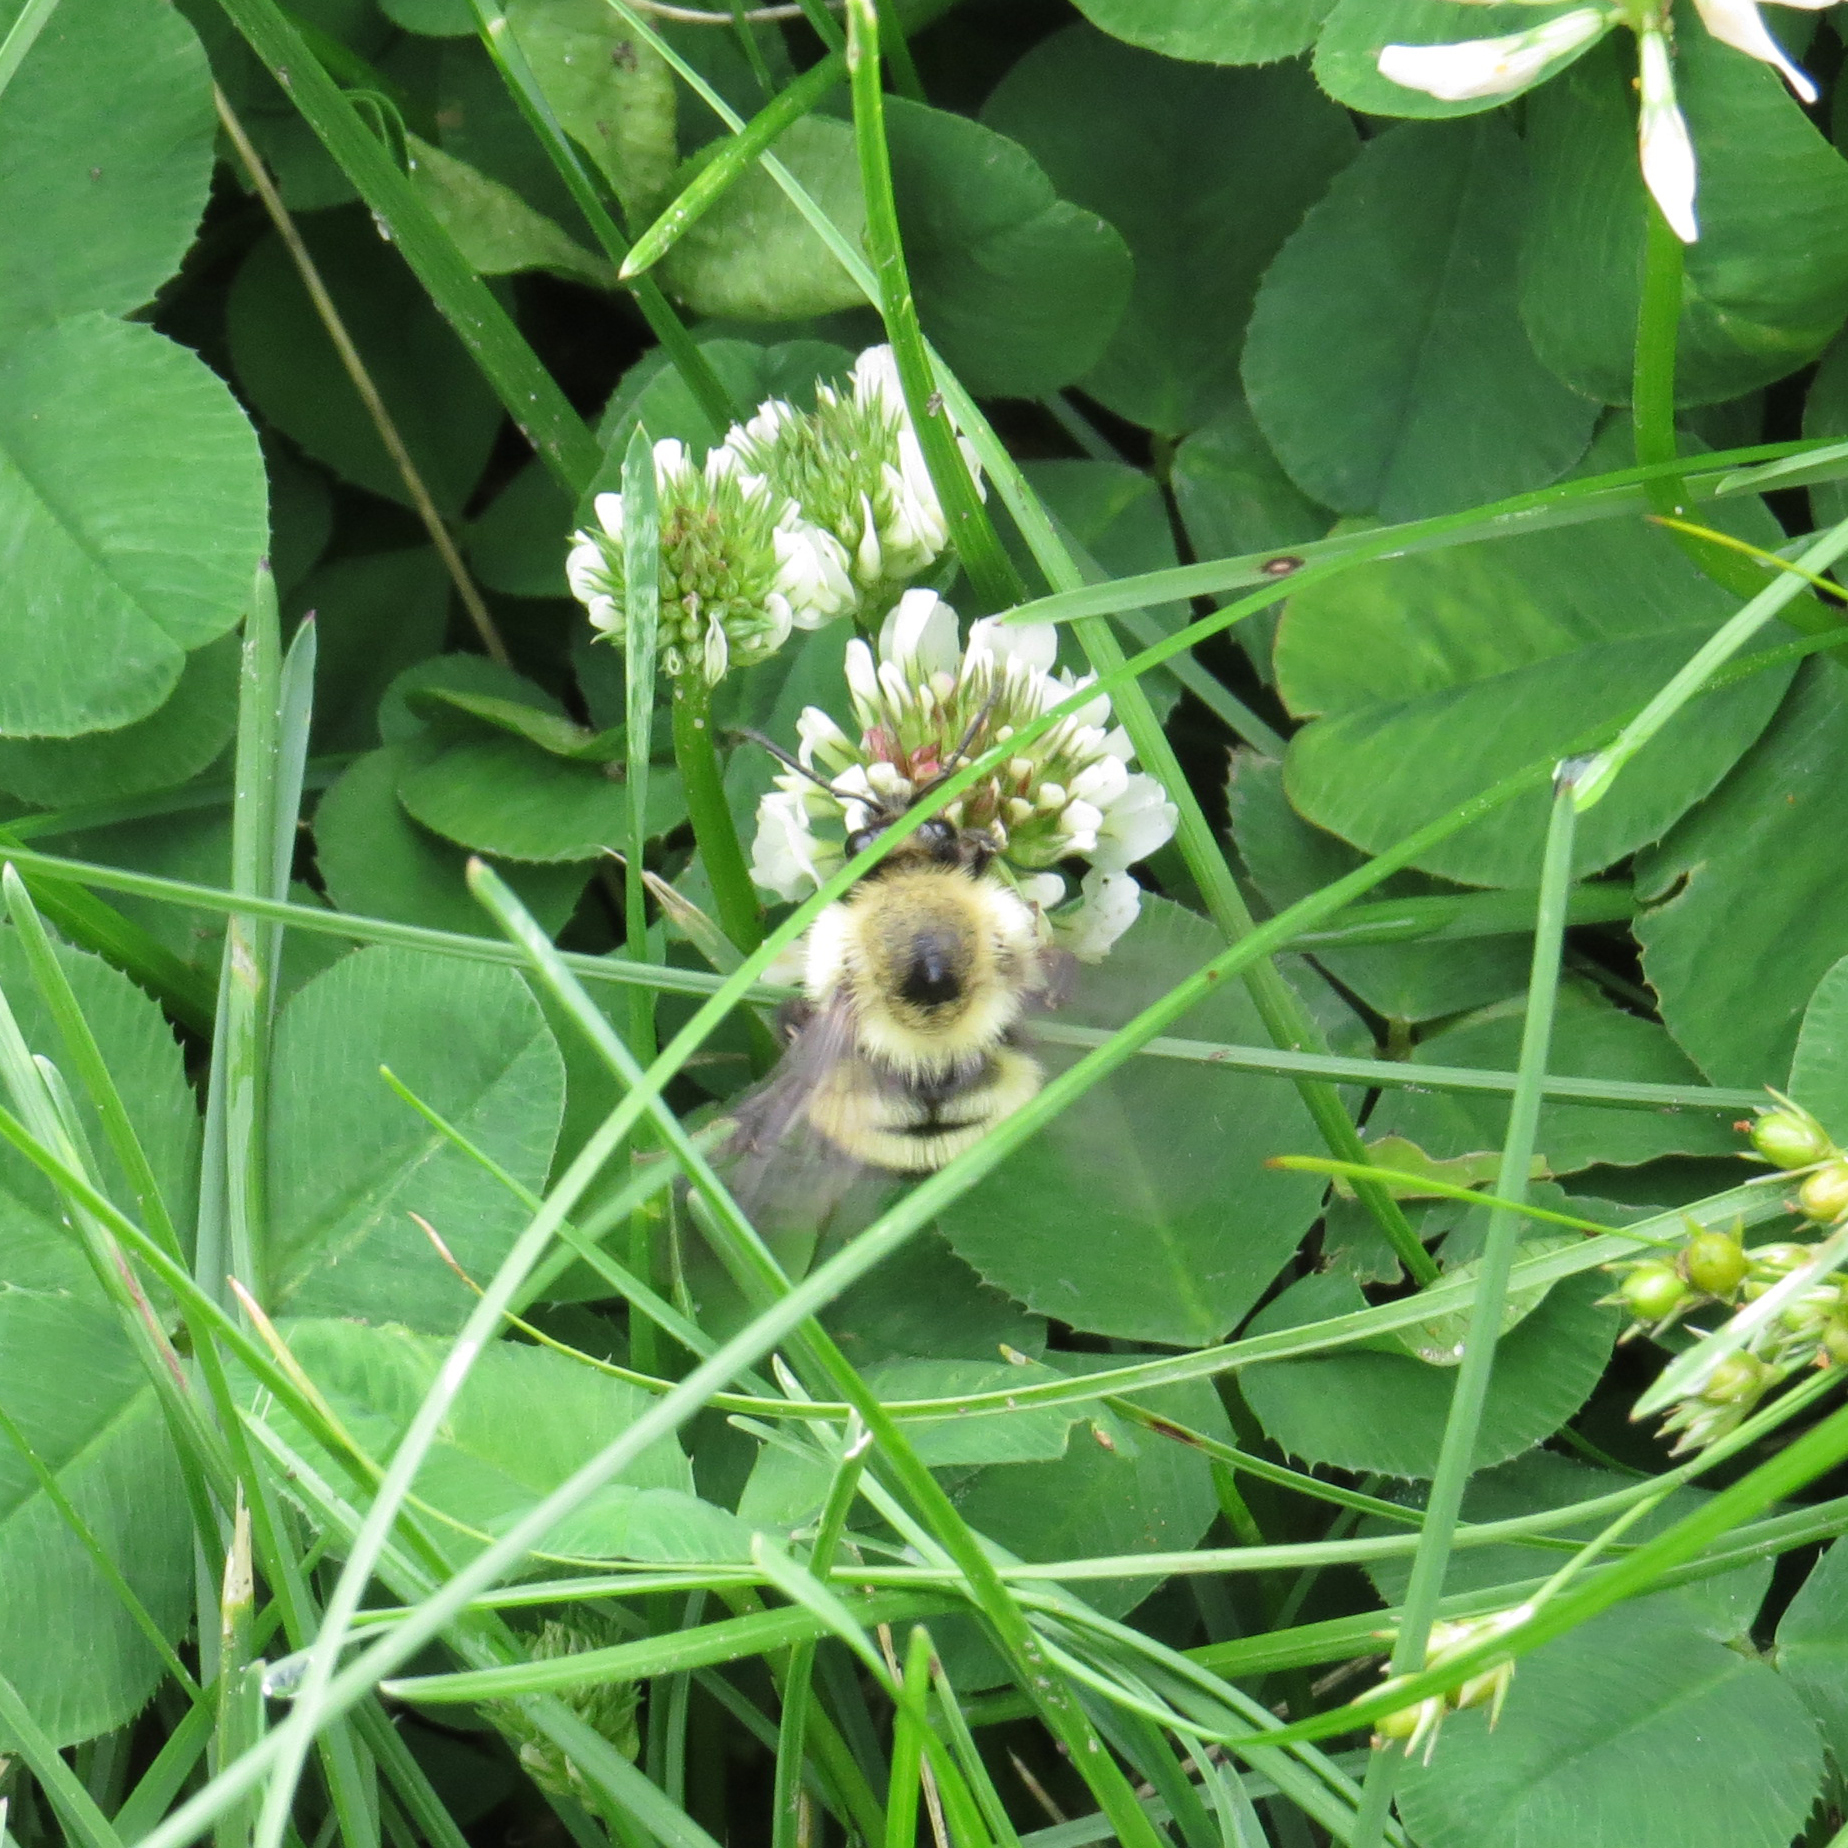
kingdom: Animalia
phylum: Arthropoda
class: Insecta
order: Hymenoptera
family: Apidae
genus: Pyrobombus
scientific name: Pyrobombus
